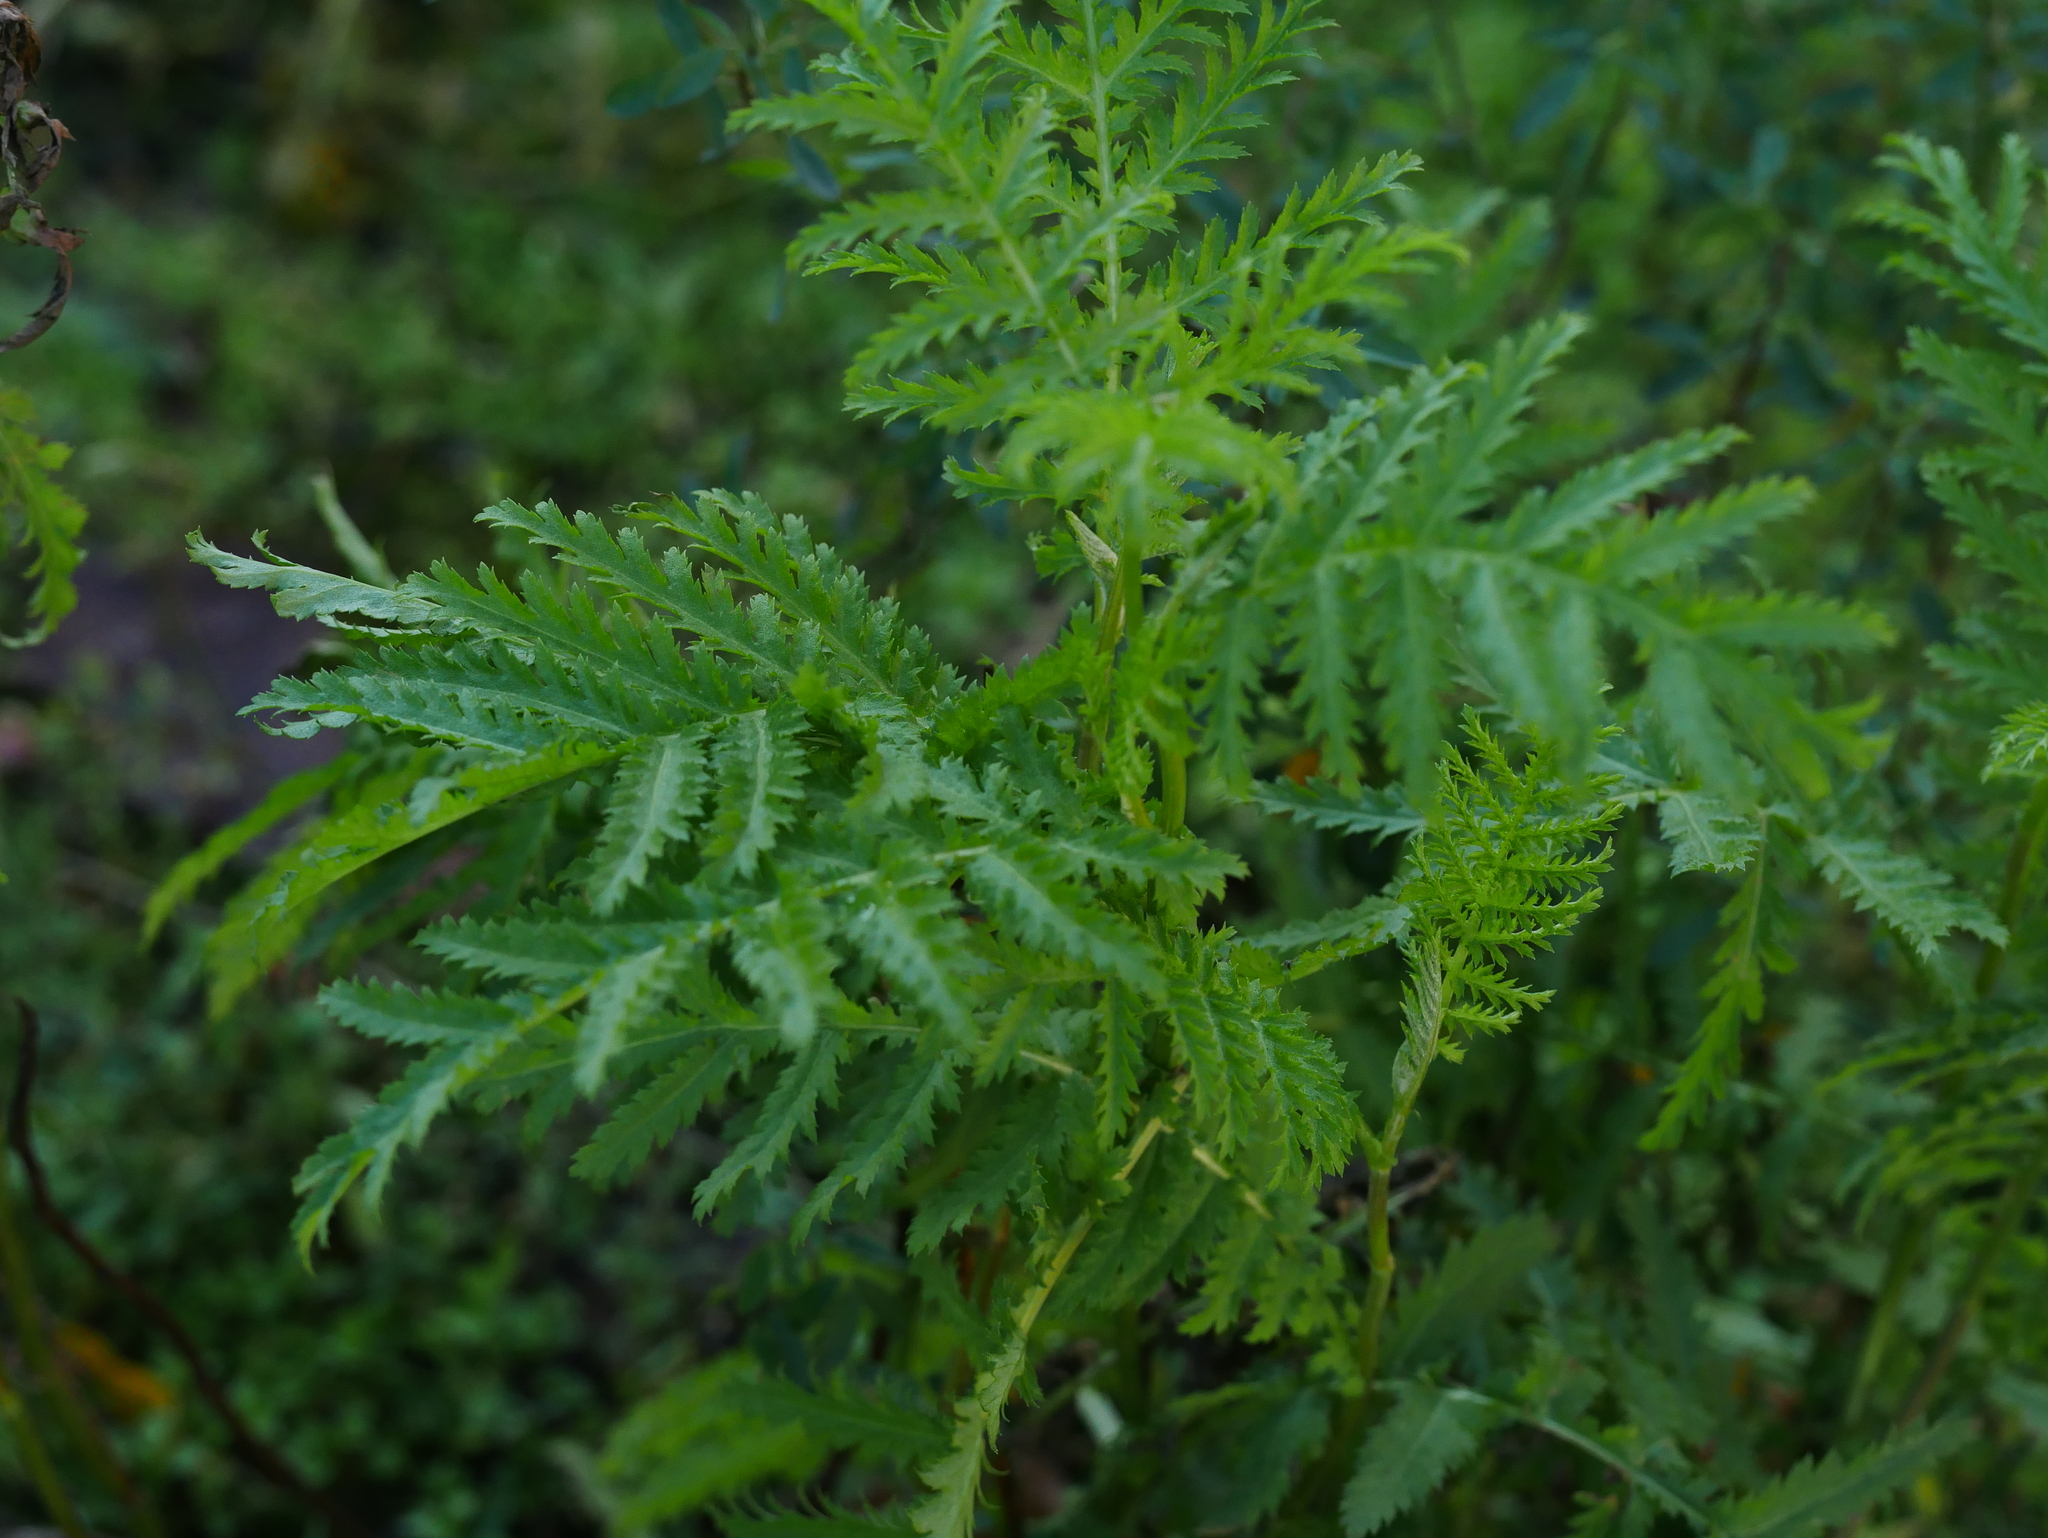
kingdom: Plantae
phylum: Tracheophyta
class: Magnoliopsida
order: Asterales
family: Asteraceae
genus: Tanacetum
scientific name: Tanacetum vulgare
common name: Common tansy
